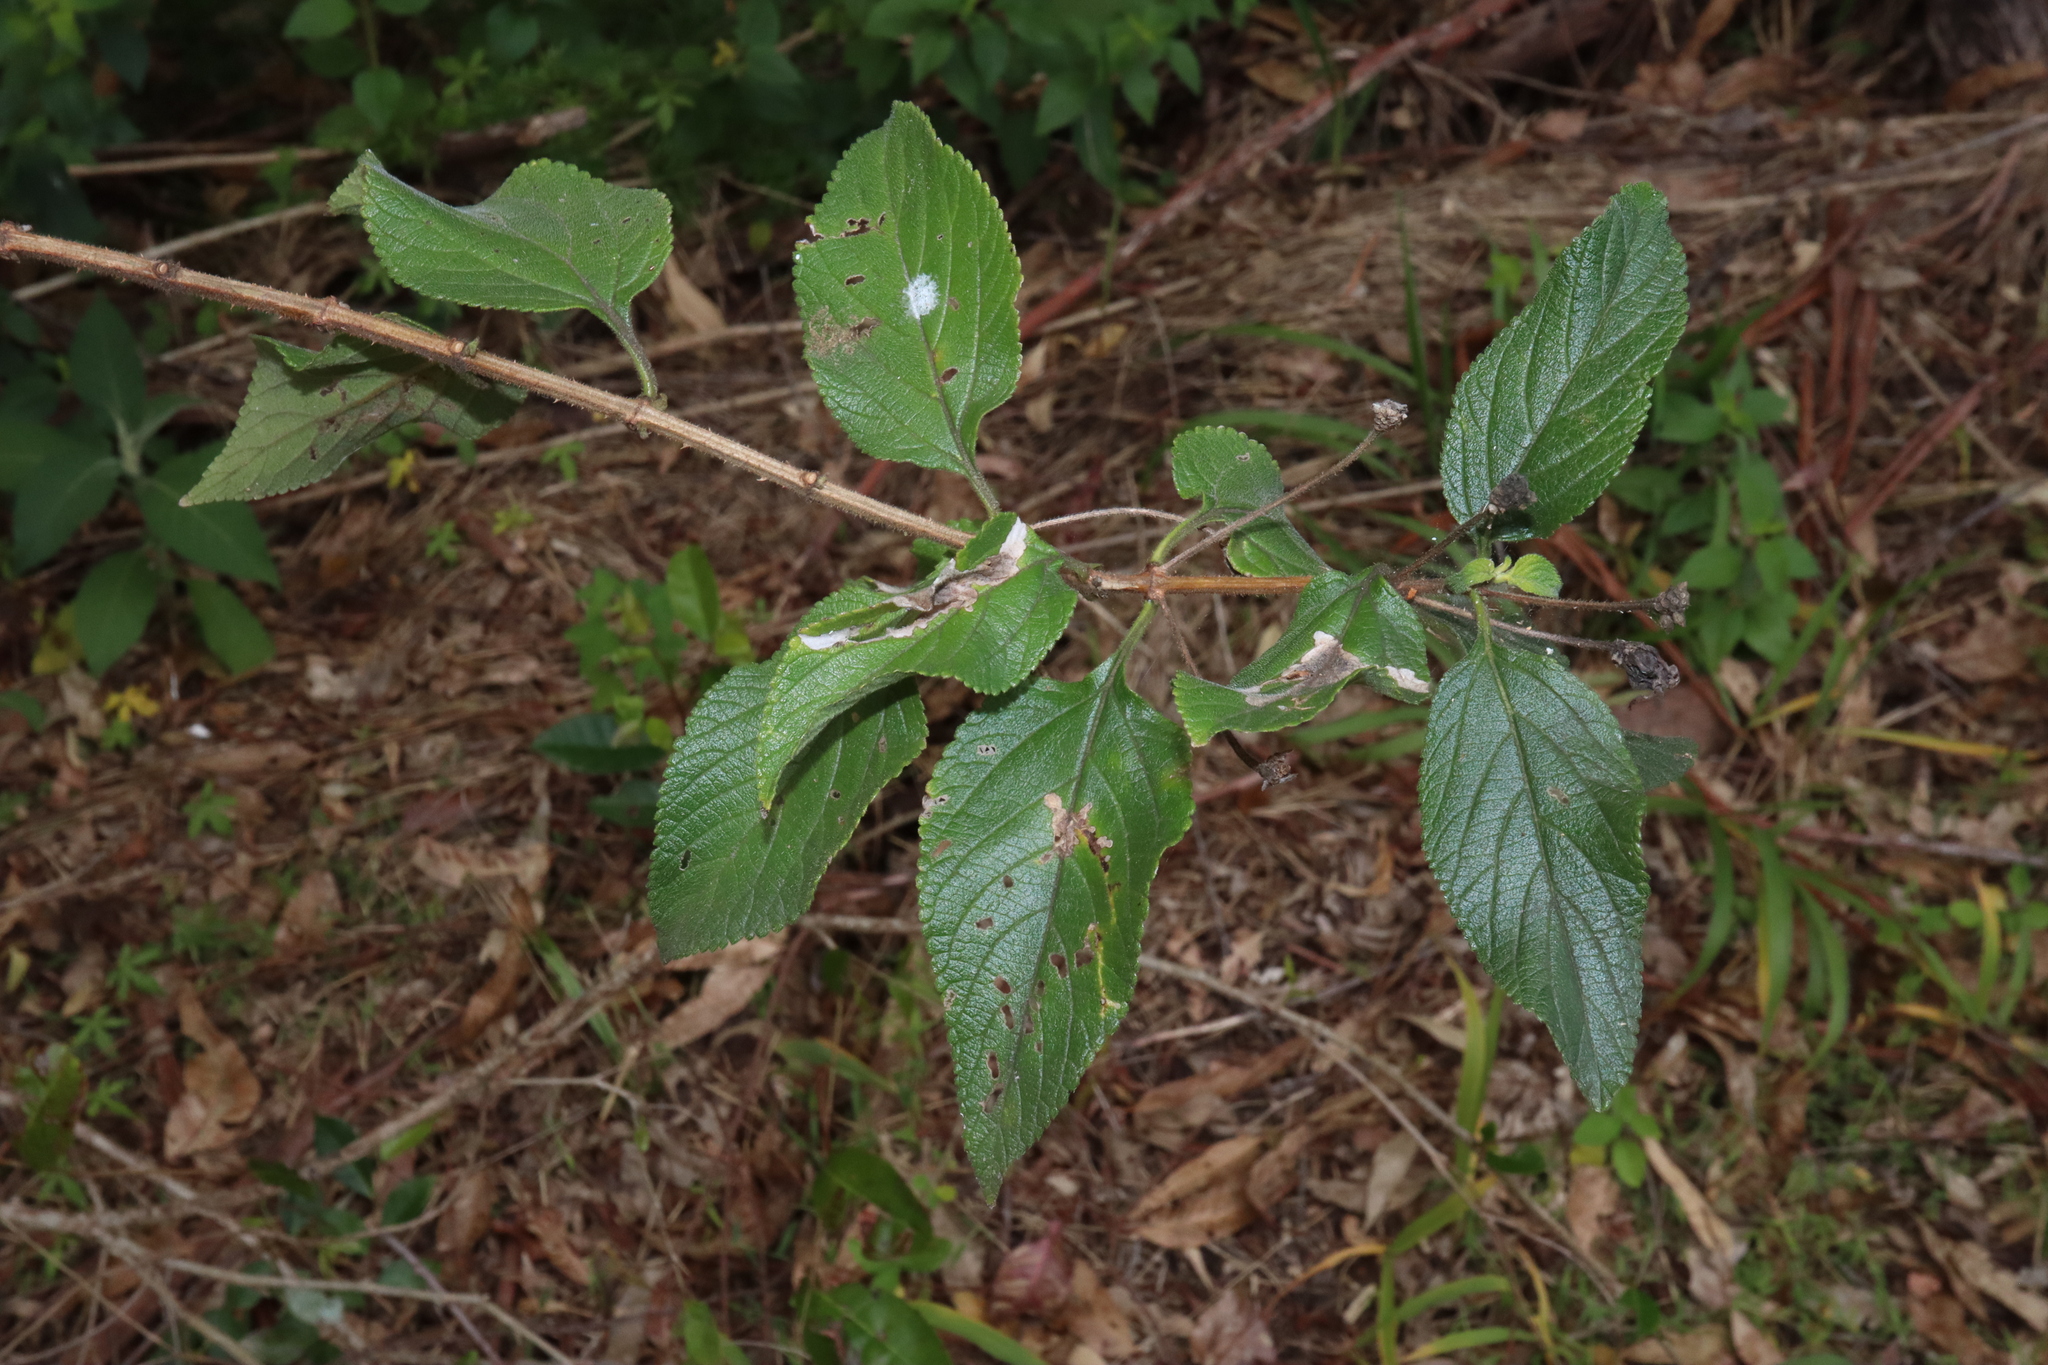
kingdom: Plantae
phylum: Tracheophyta
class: Magnoliopsida
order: Lamiales
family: Verbenaceae
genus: Lantana
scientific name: Lantana camara
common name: Lantana
